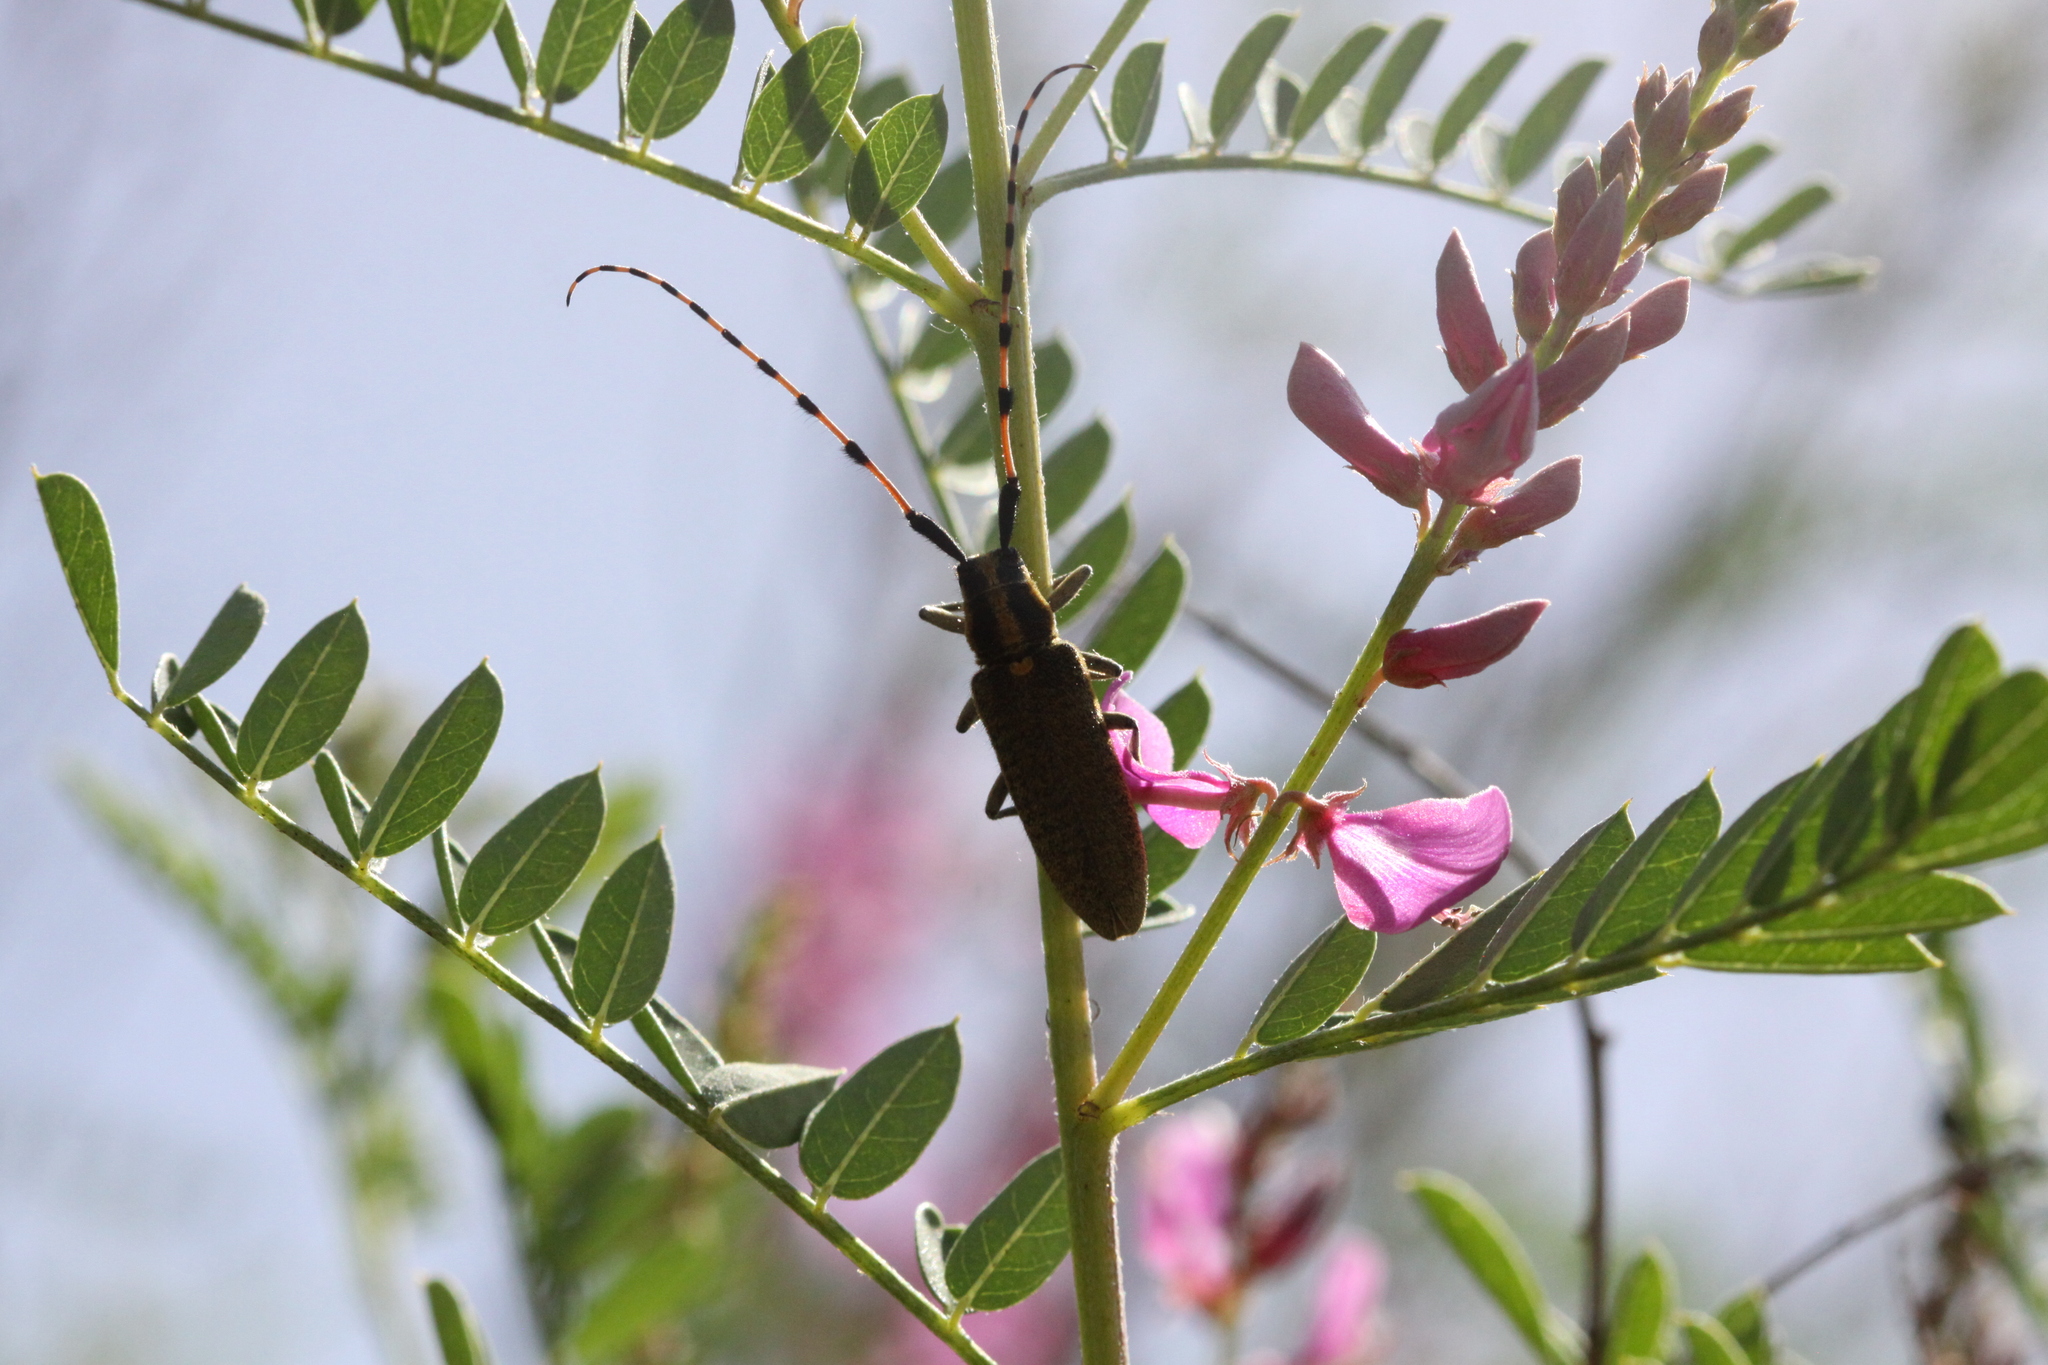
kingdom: Animalia
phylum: Arthropoda
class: Insecta
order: Coleoptera
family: Cerambycidae
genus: Agapanthia
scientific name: Agapanthia dahlii
